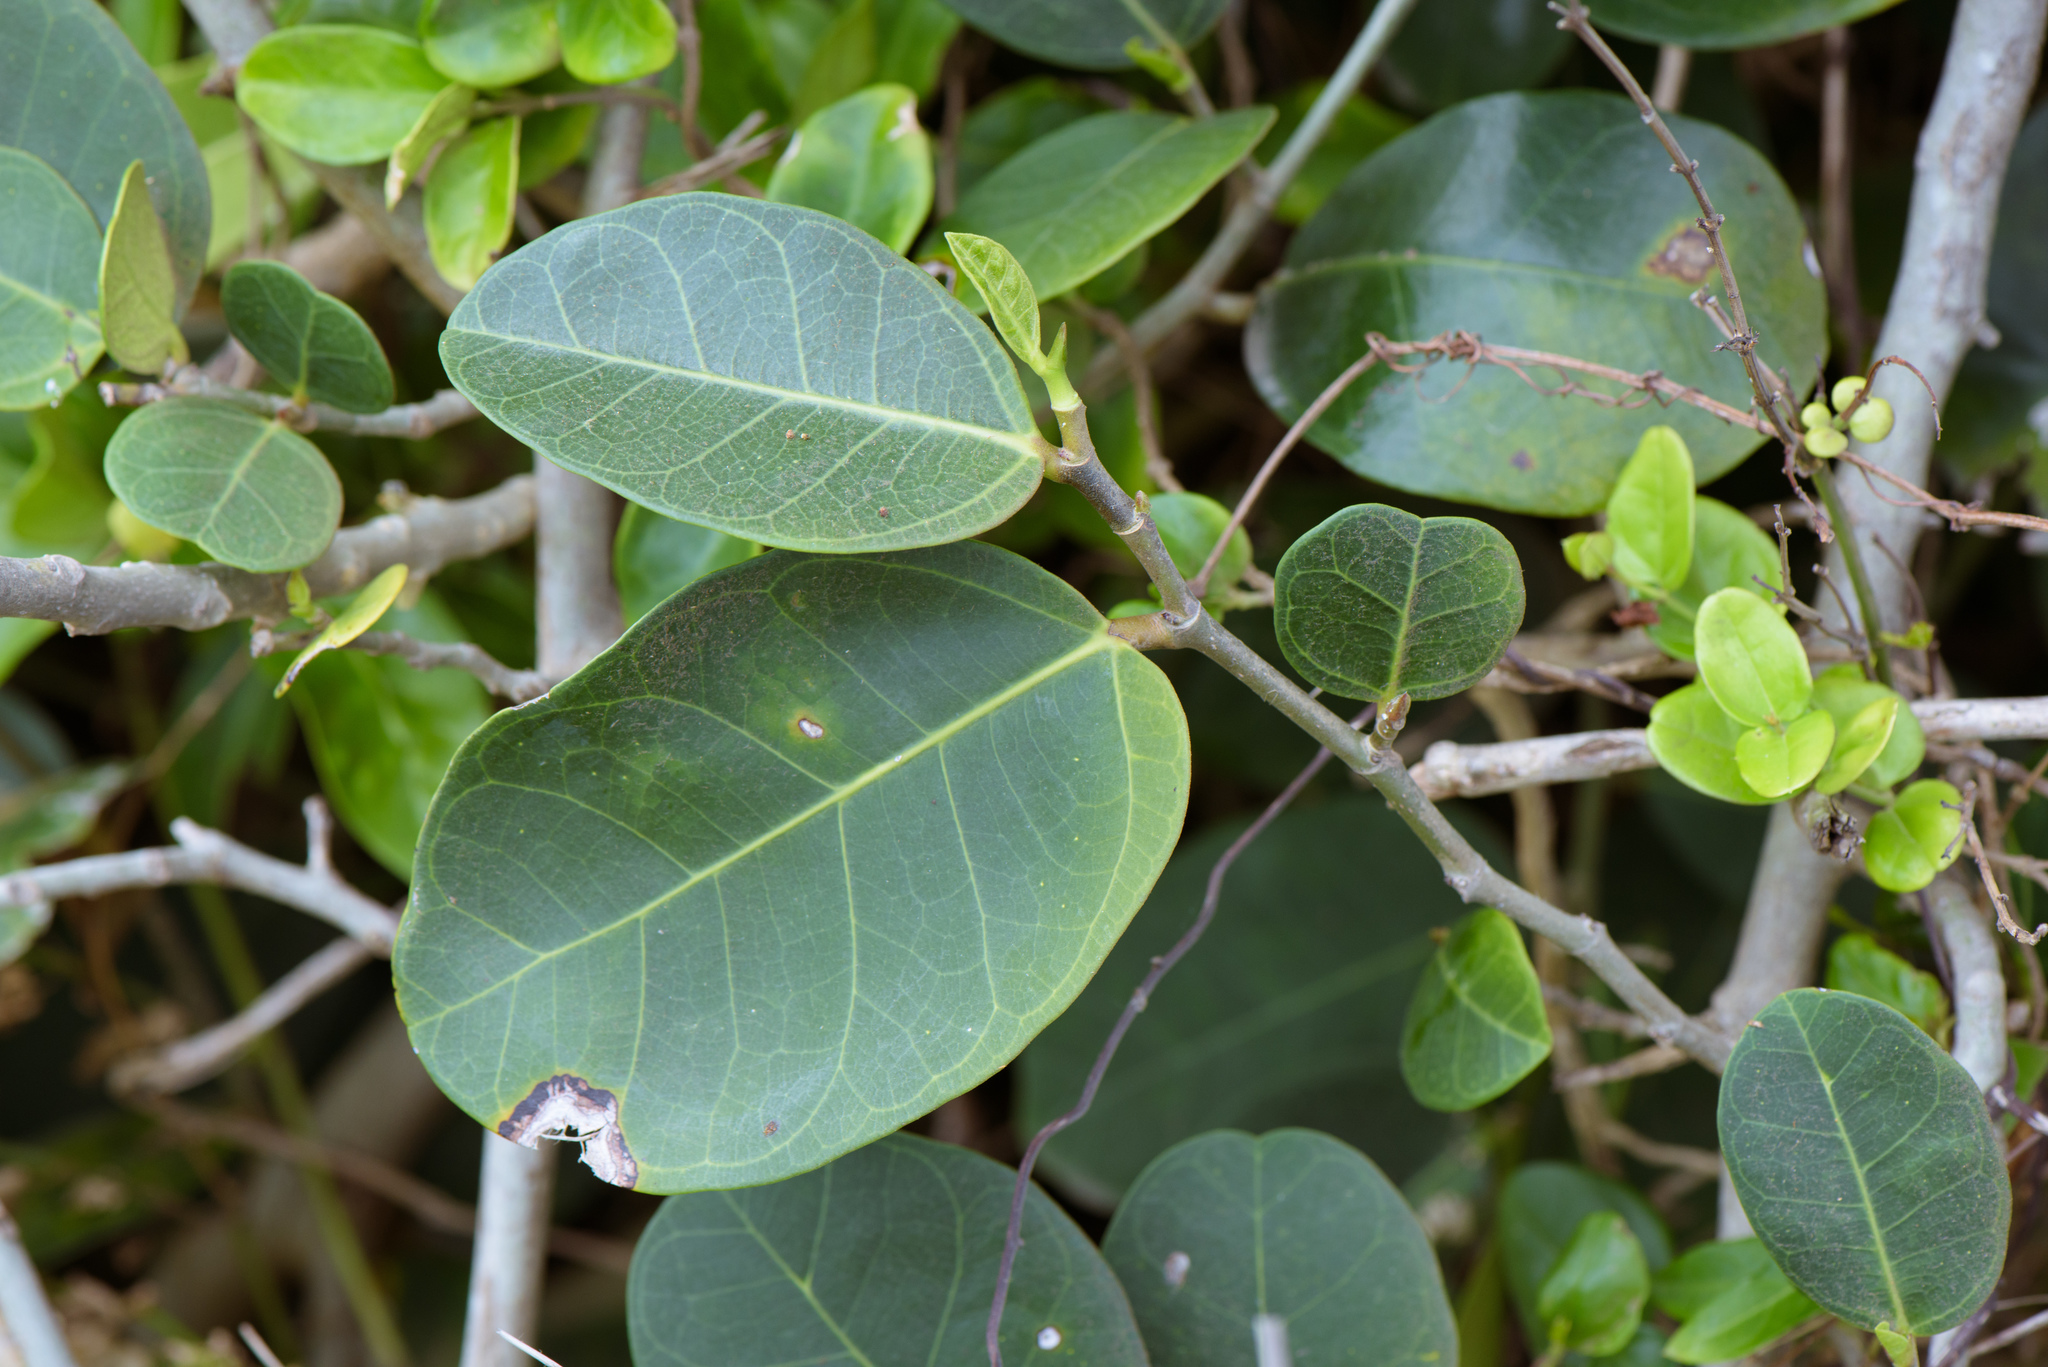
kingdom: Plantae
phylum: Tracheophyta
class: Magnoliopsida
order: Rosales
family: Moraceae
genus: Ficus
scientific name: Ficus tinctoria
